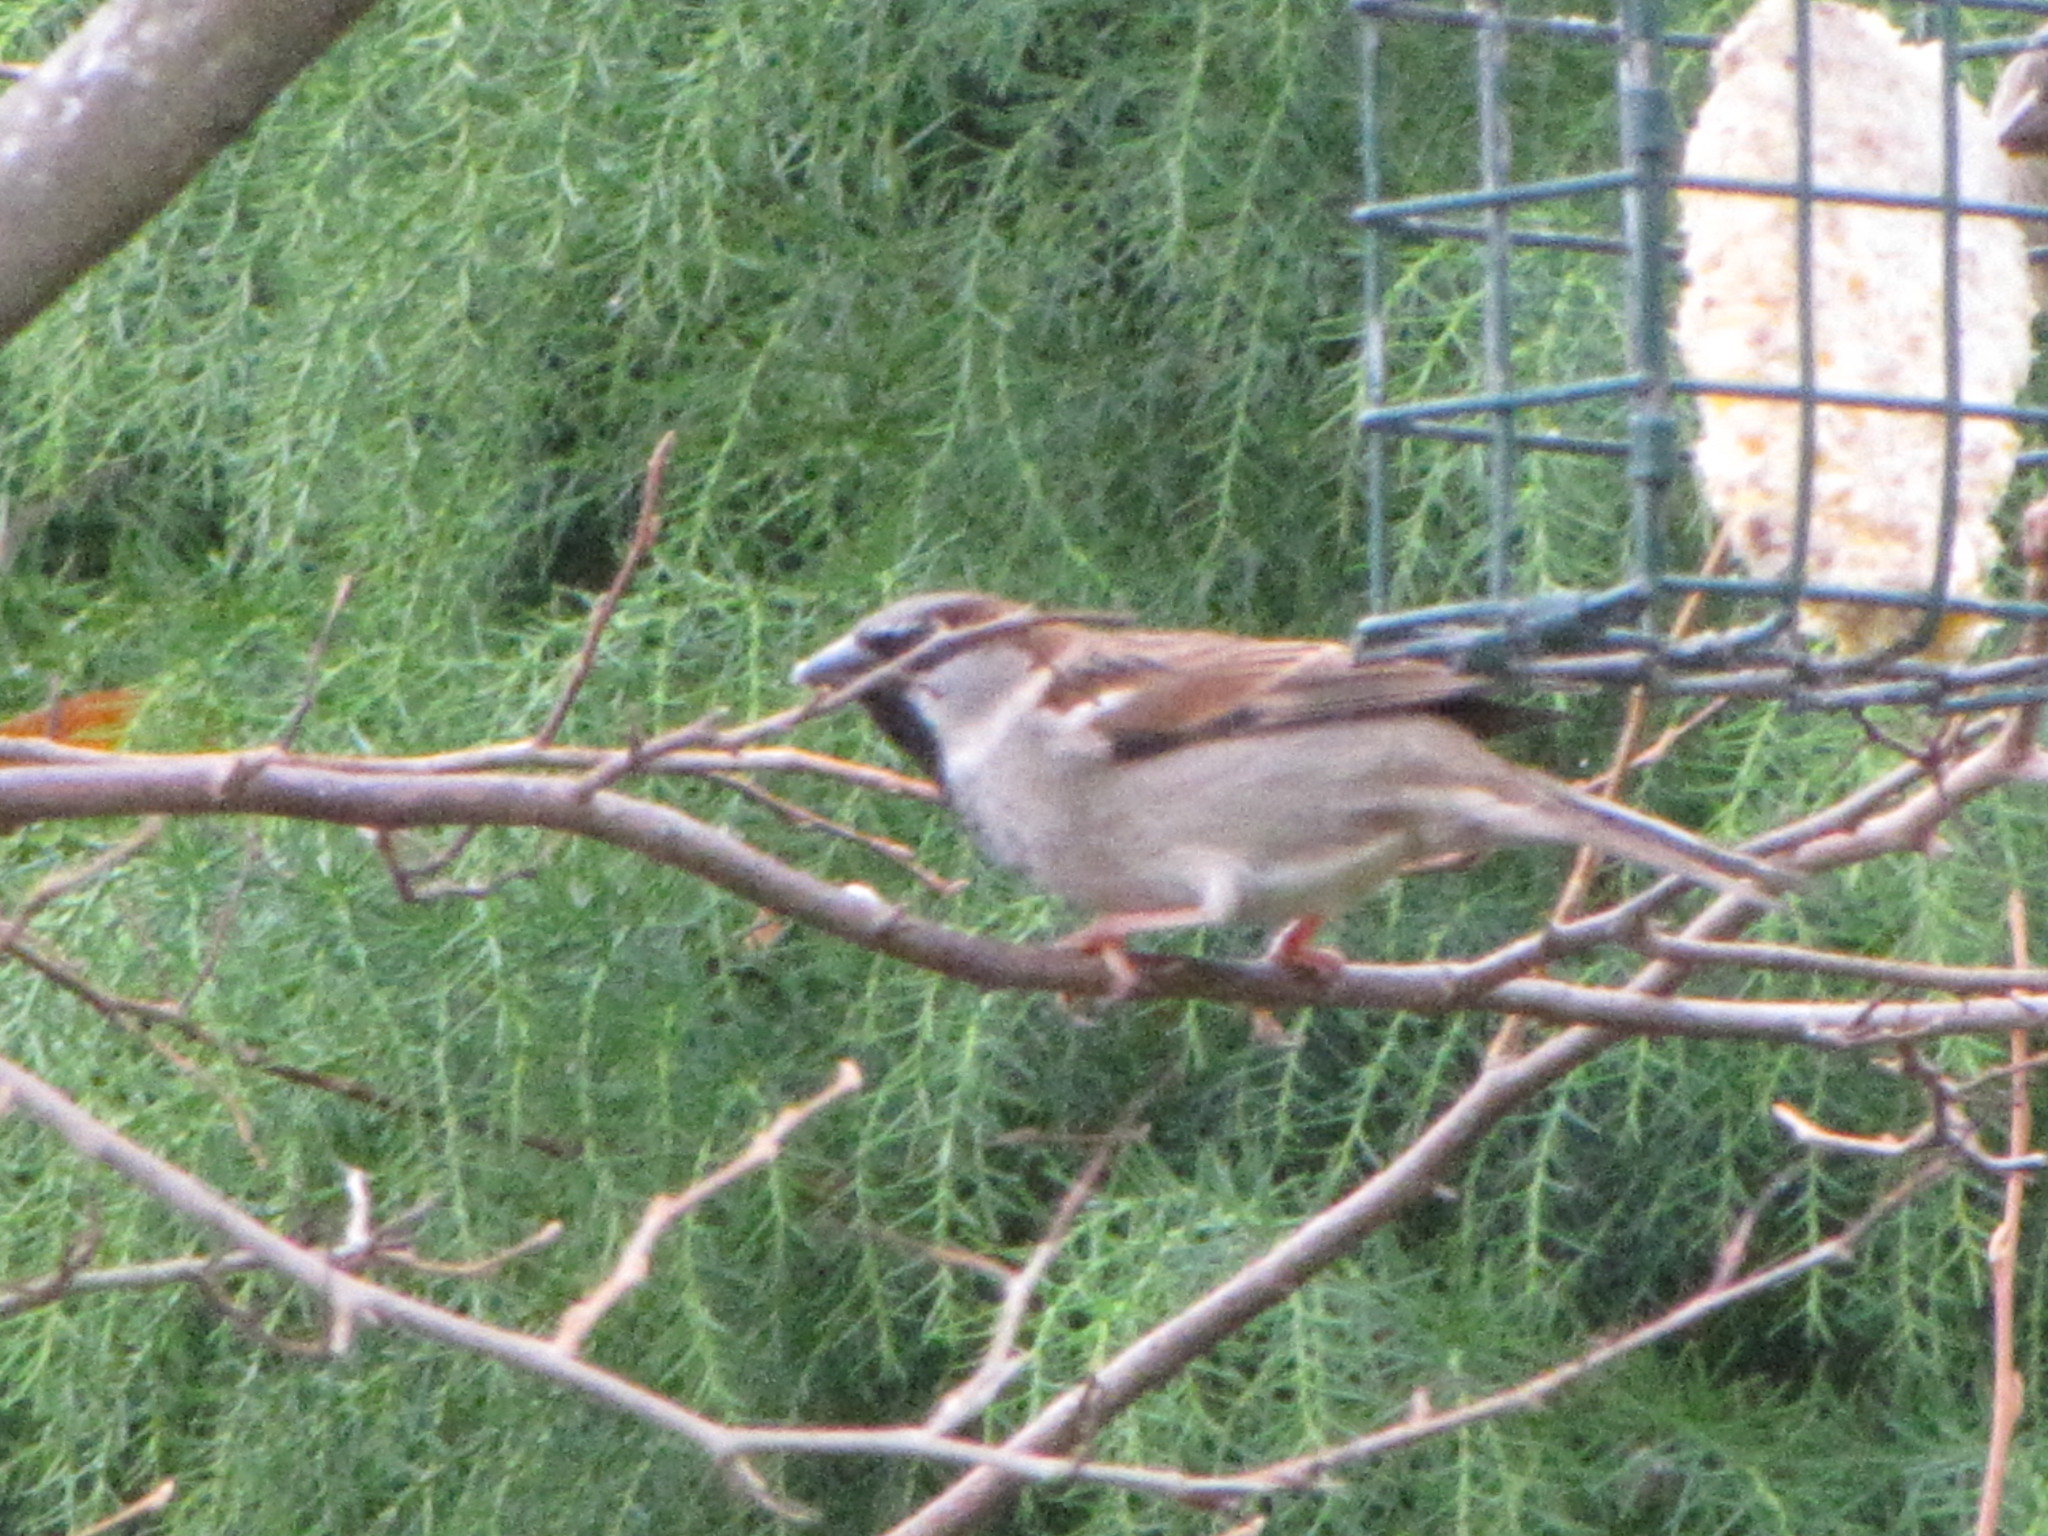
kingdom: Animalia
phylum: Chordata
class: Aves
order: Passeriformes
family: Passeridae
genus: Passer
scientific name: Passer domesticus
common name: House sparrow
